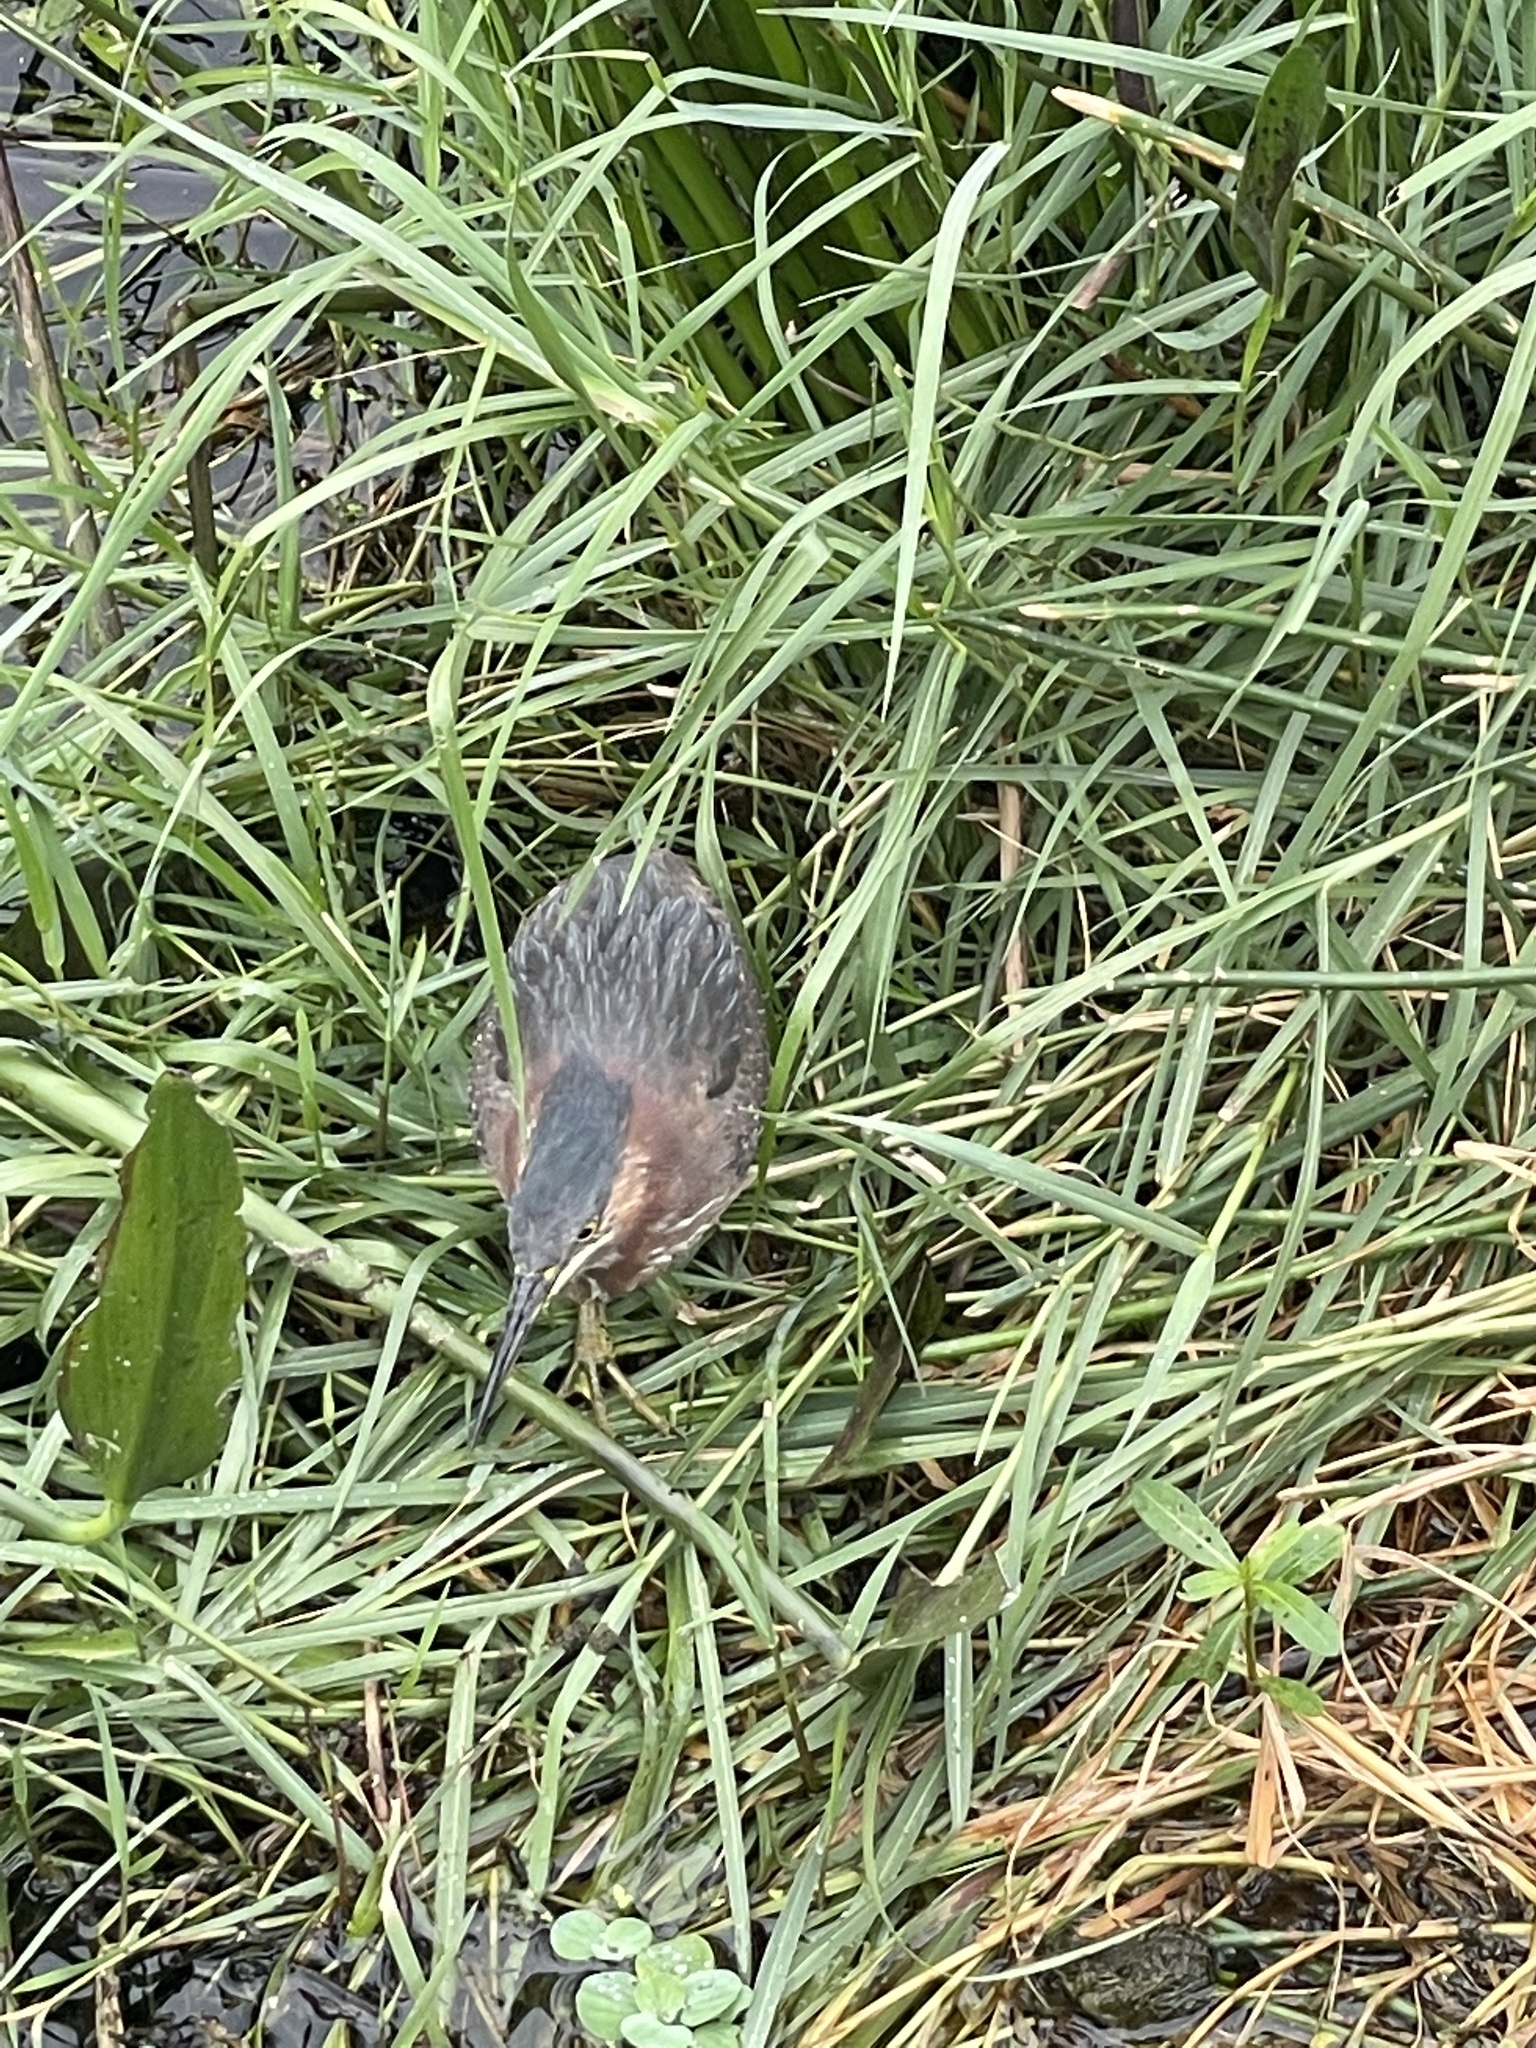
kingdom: Animalia
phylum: Chordata
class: Aves
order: Pelecaniformes
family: Ardeidae
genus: Butorides
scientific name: Butorides virescens
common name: Green heron
